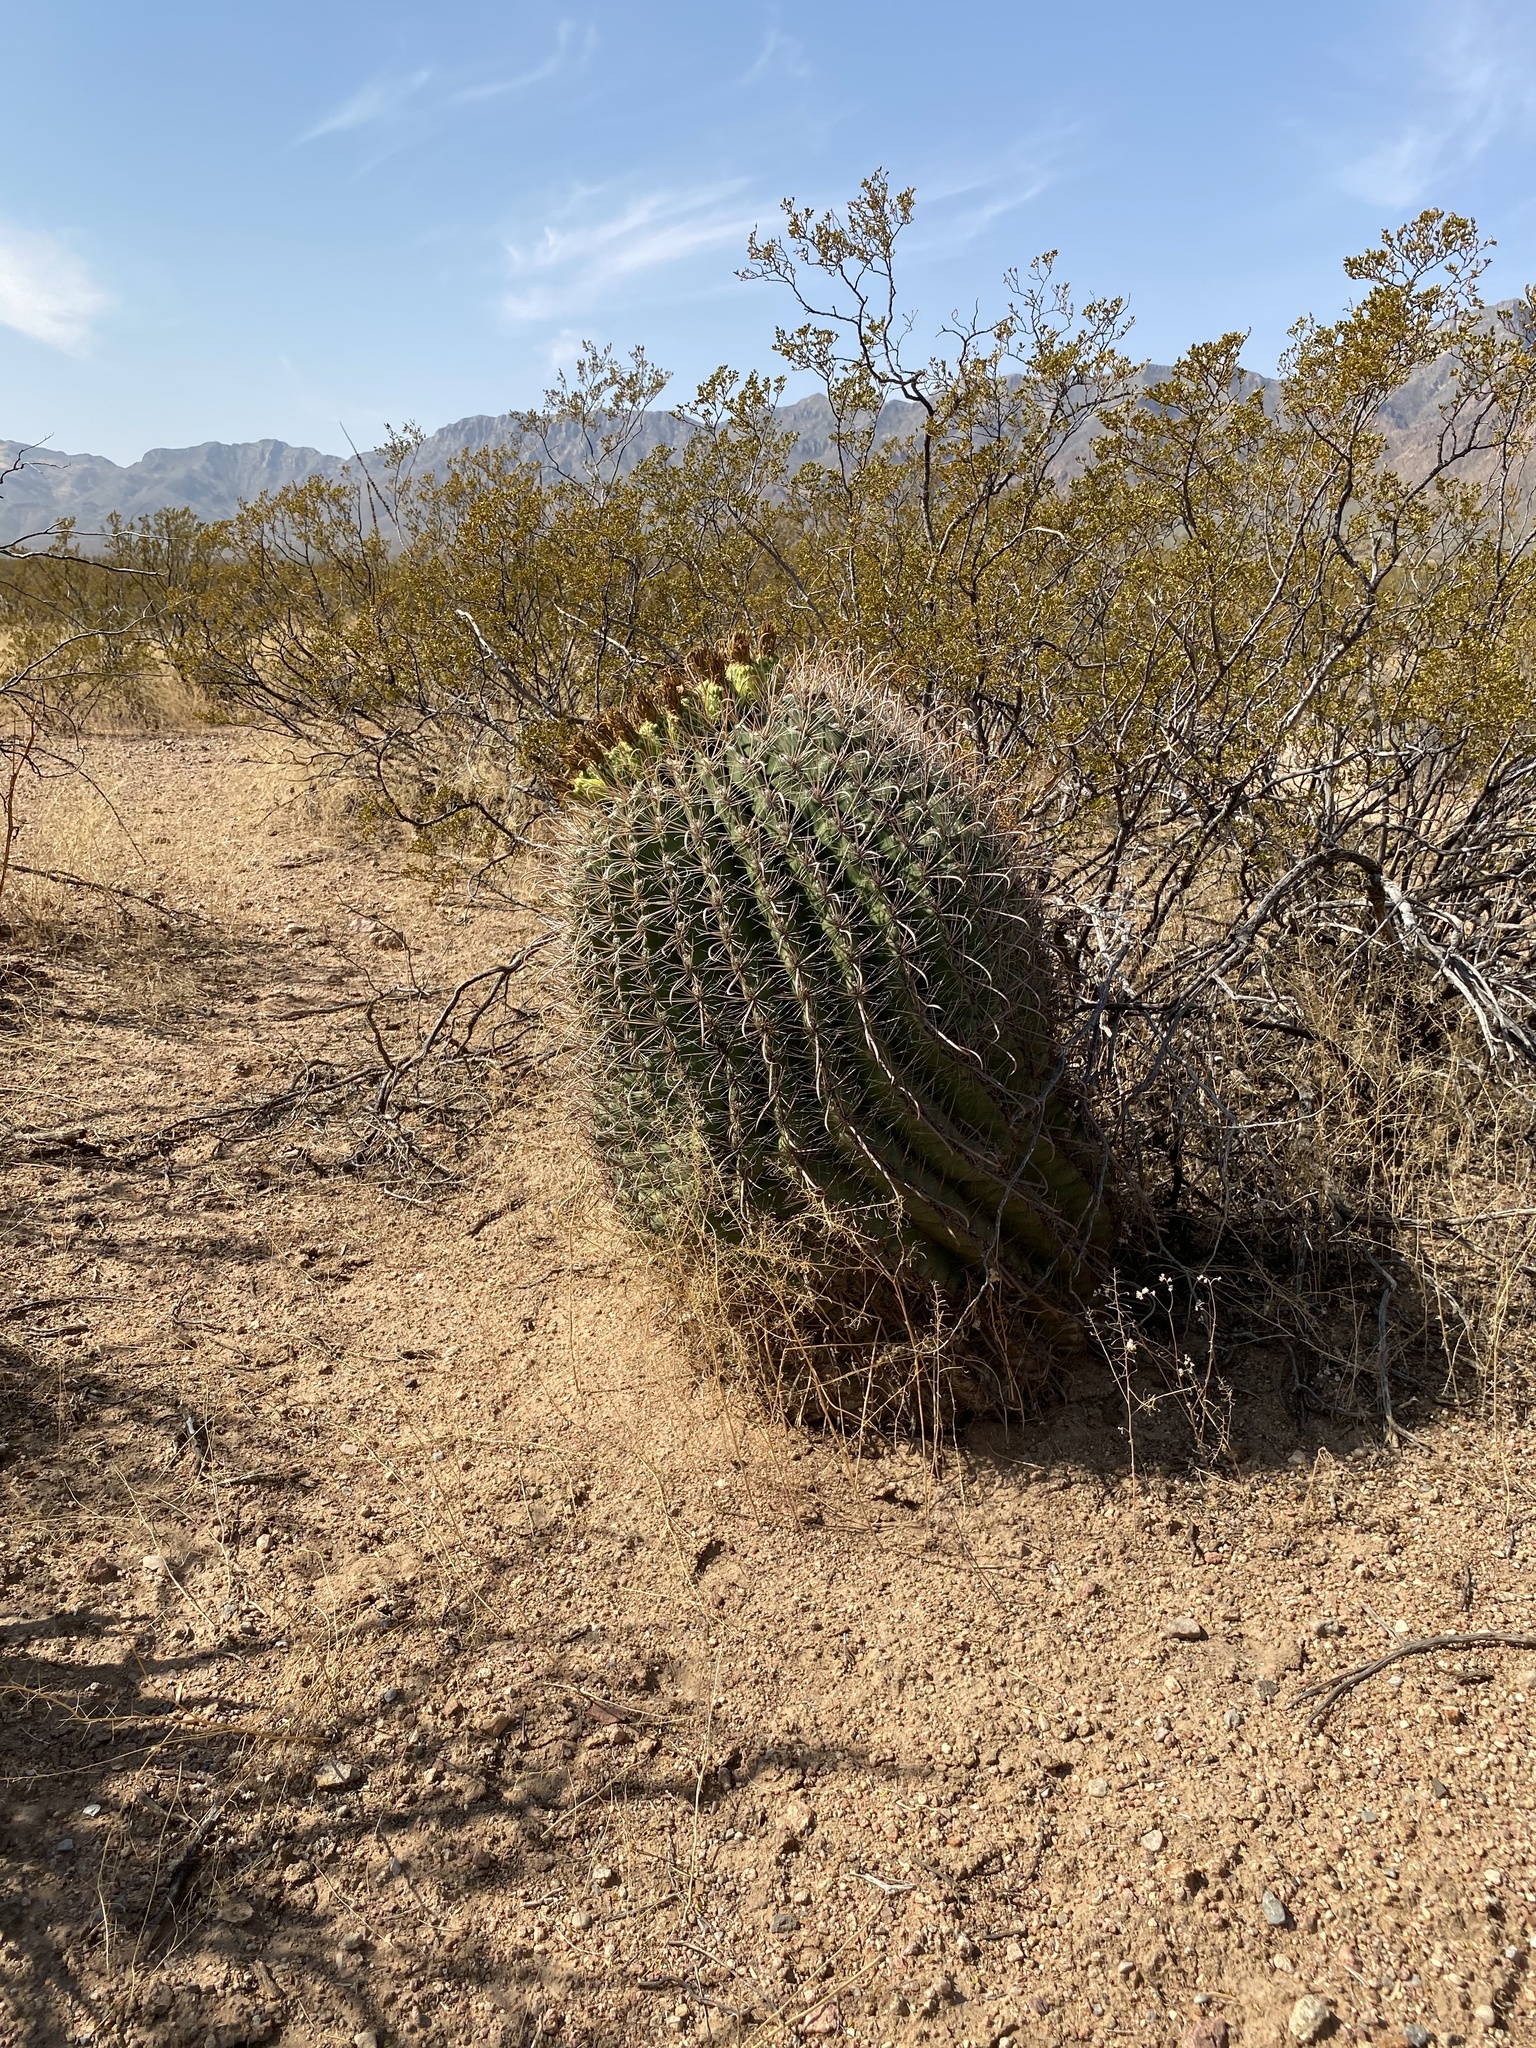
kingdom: Plantae
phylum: Tracheophyta
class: Magnoliopsida
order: Caryophyllales
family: Cactaceae
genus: Ferocactus
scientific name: Ferocactus wislizeni
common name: Candy barrel cactus
